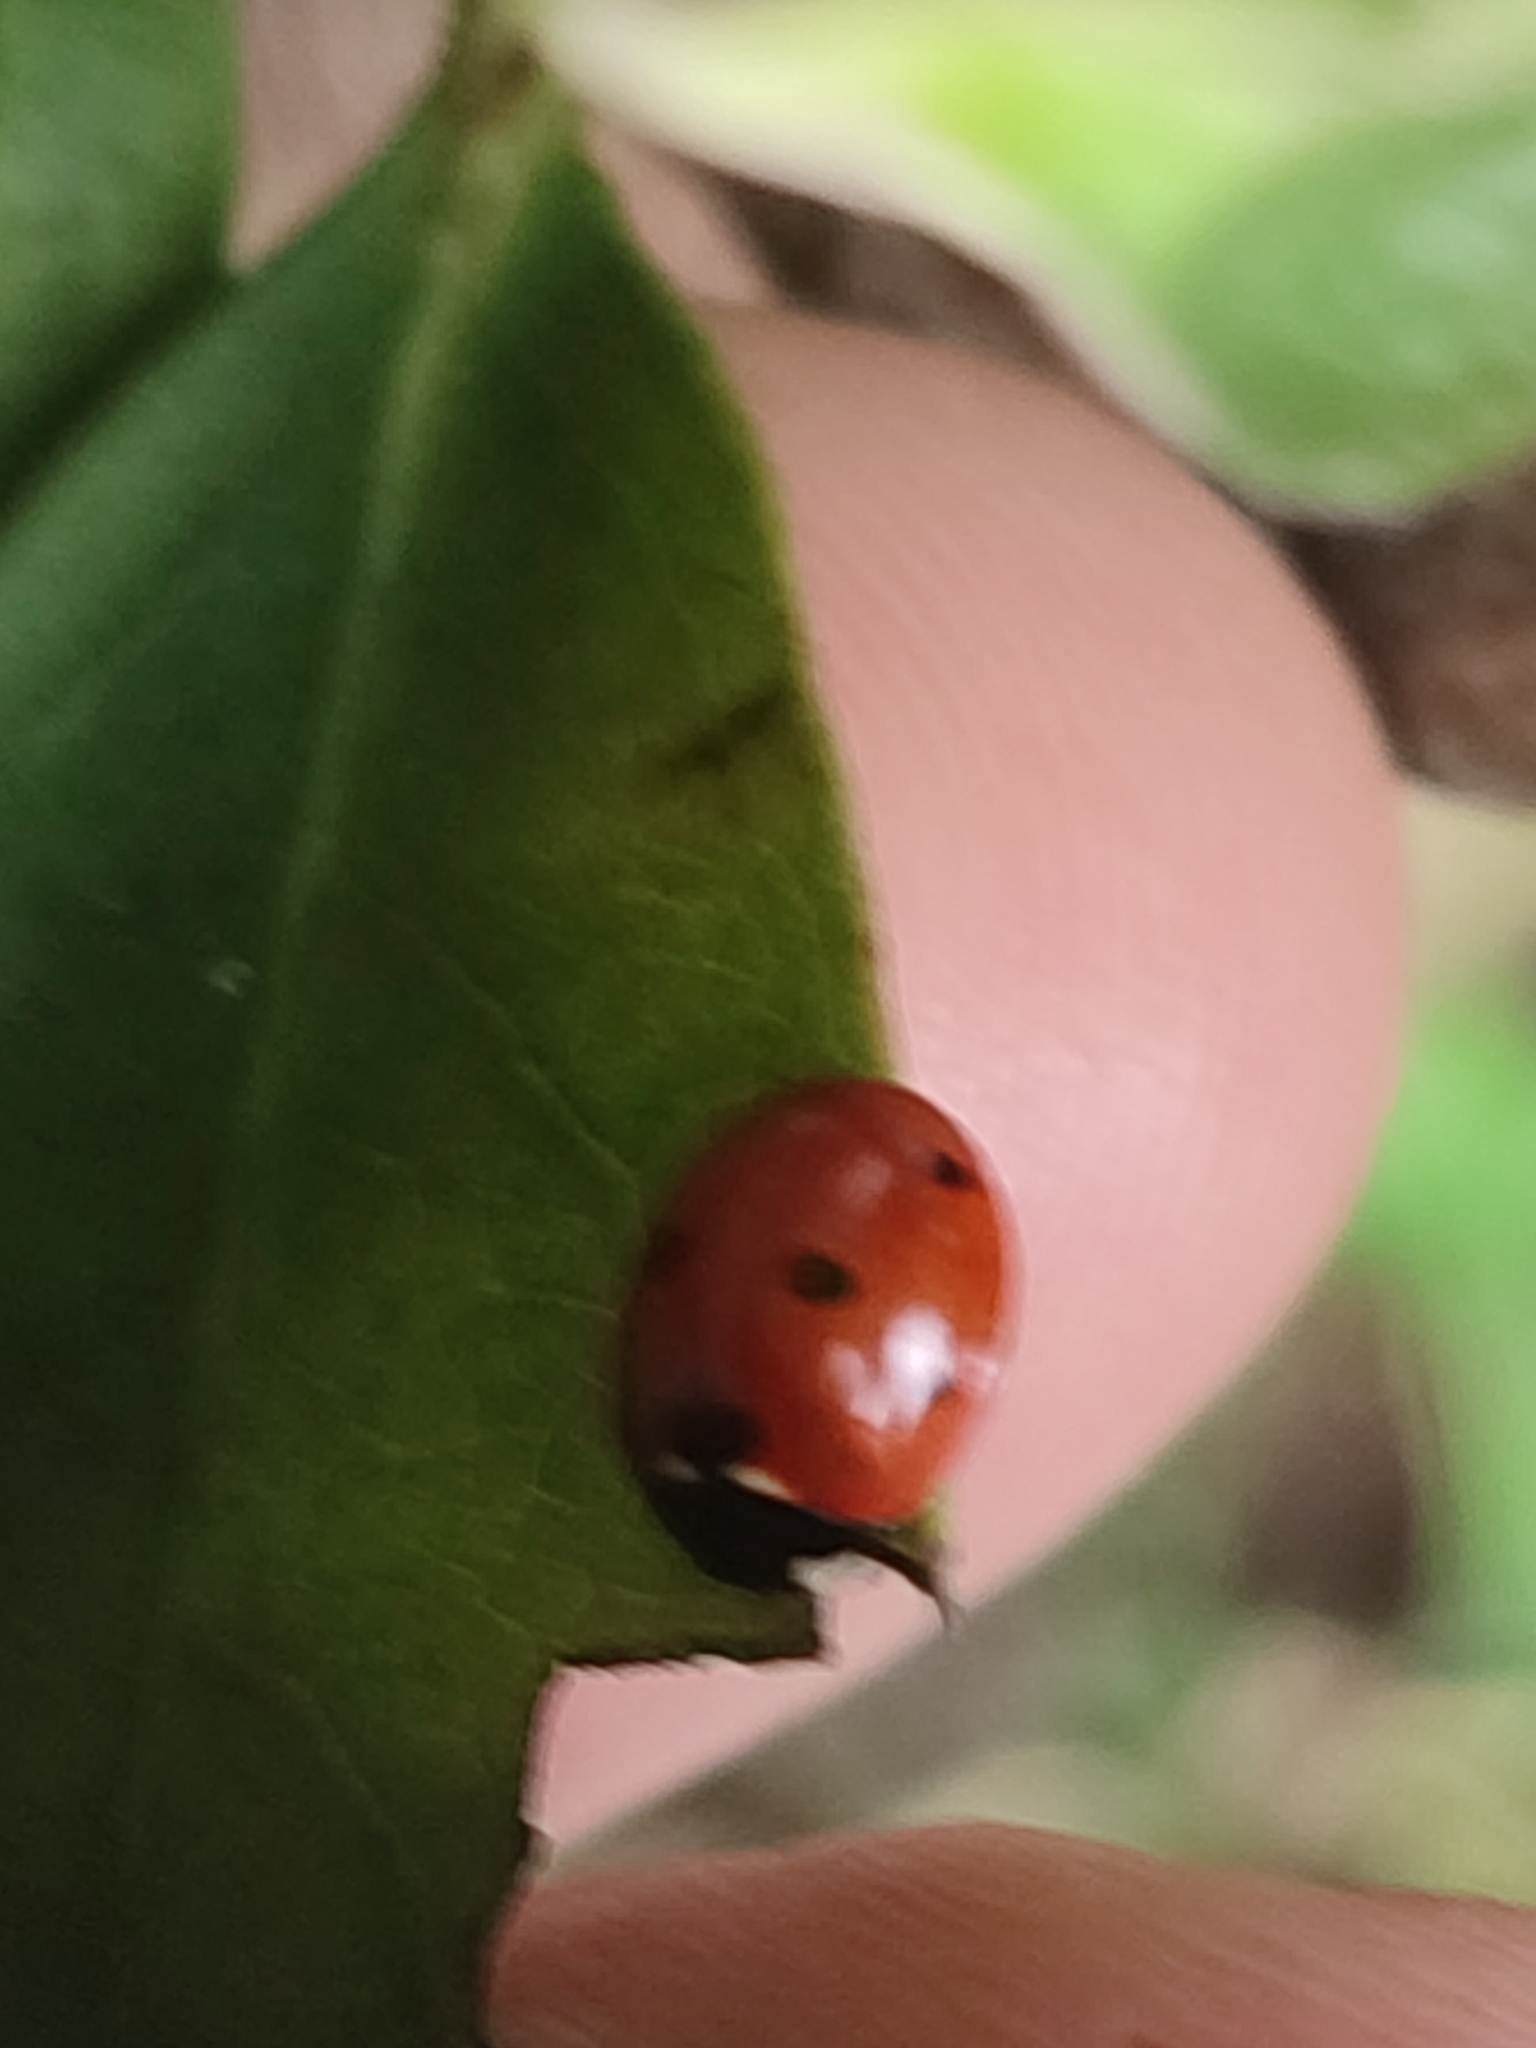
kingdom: Animalia
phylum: Arthropoda
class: Insecta
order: Coleoptera
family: Coccinellidae
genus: Coccinella
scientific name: Coccinella septempunctata
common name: Sevenspotted lady beetle
